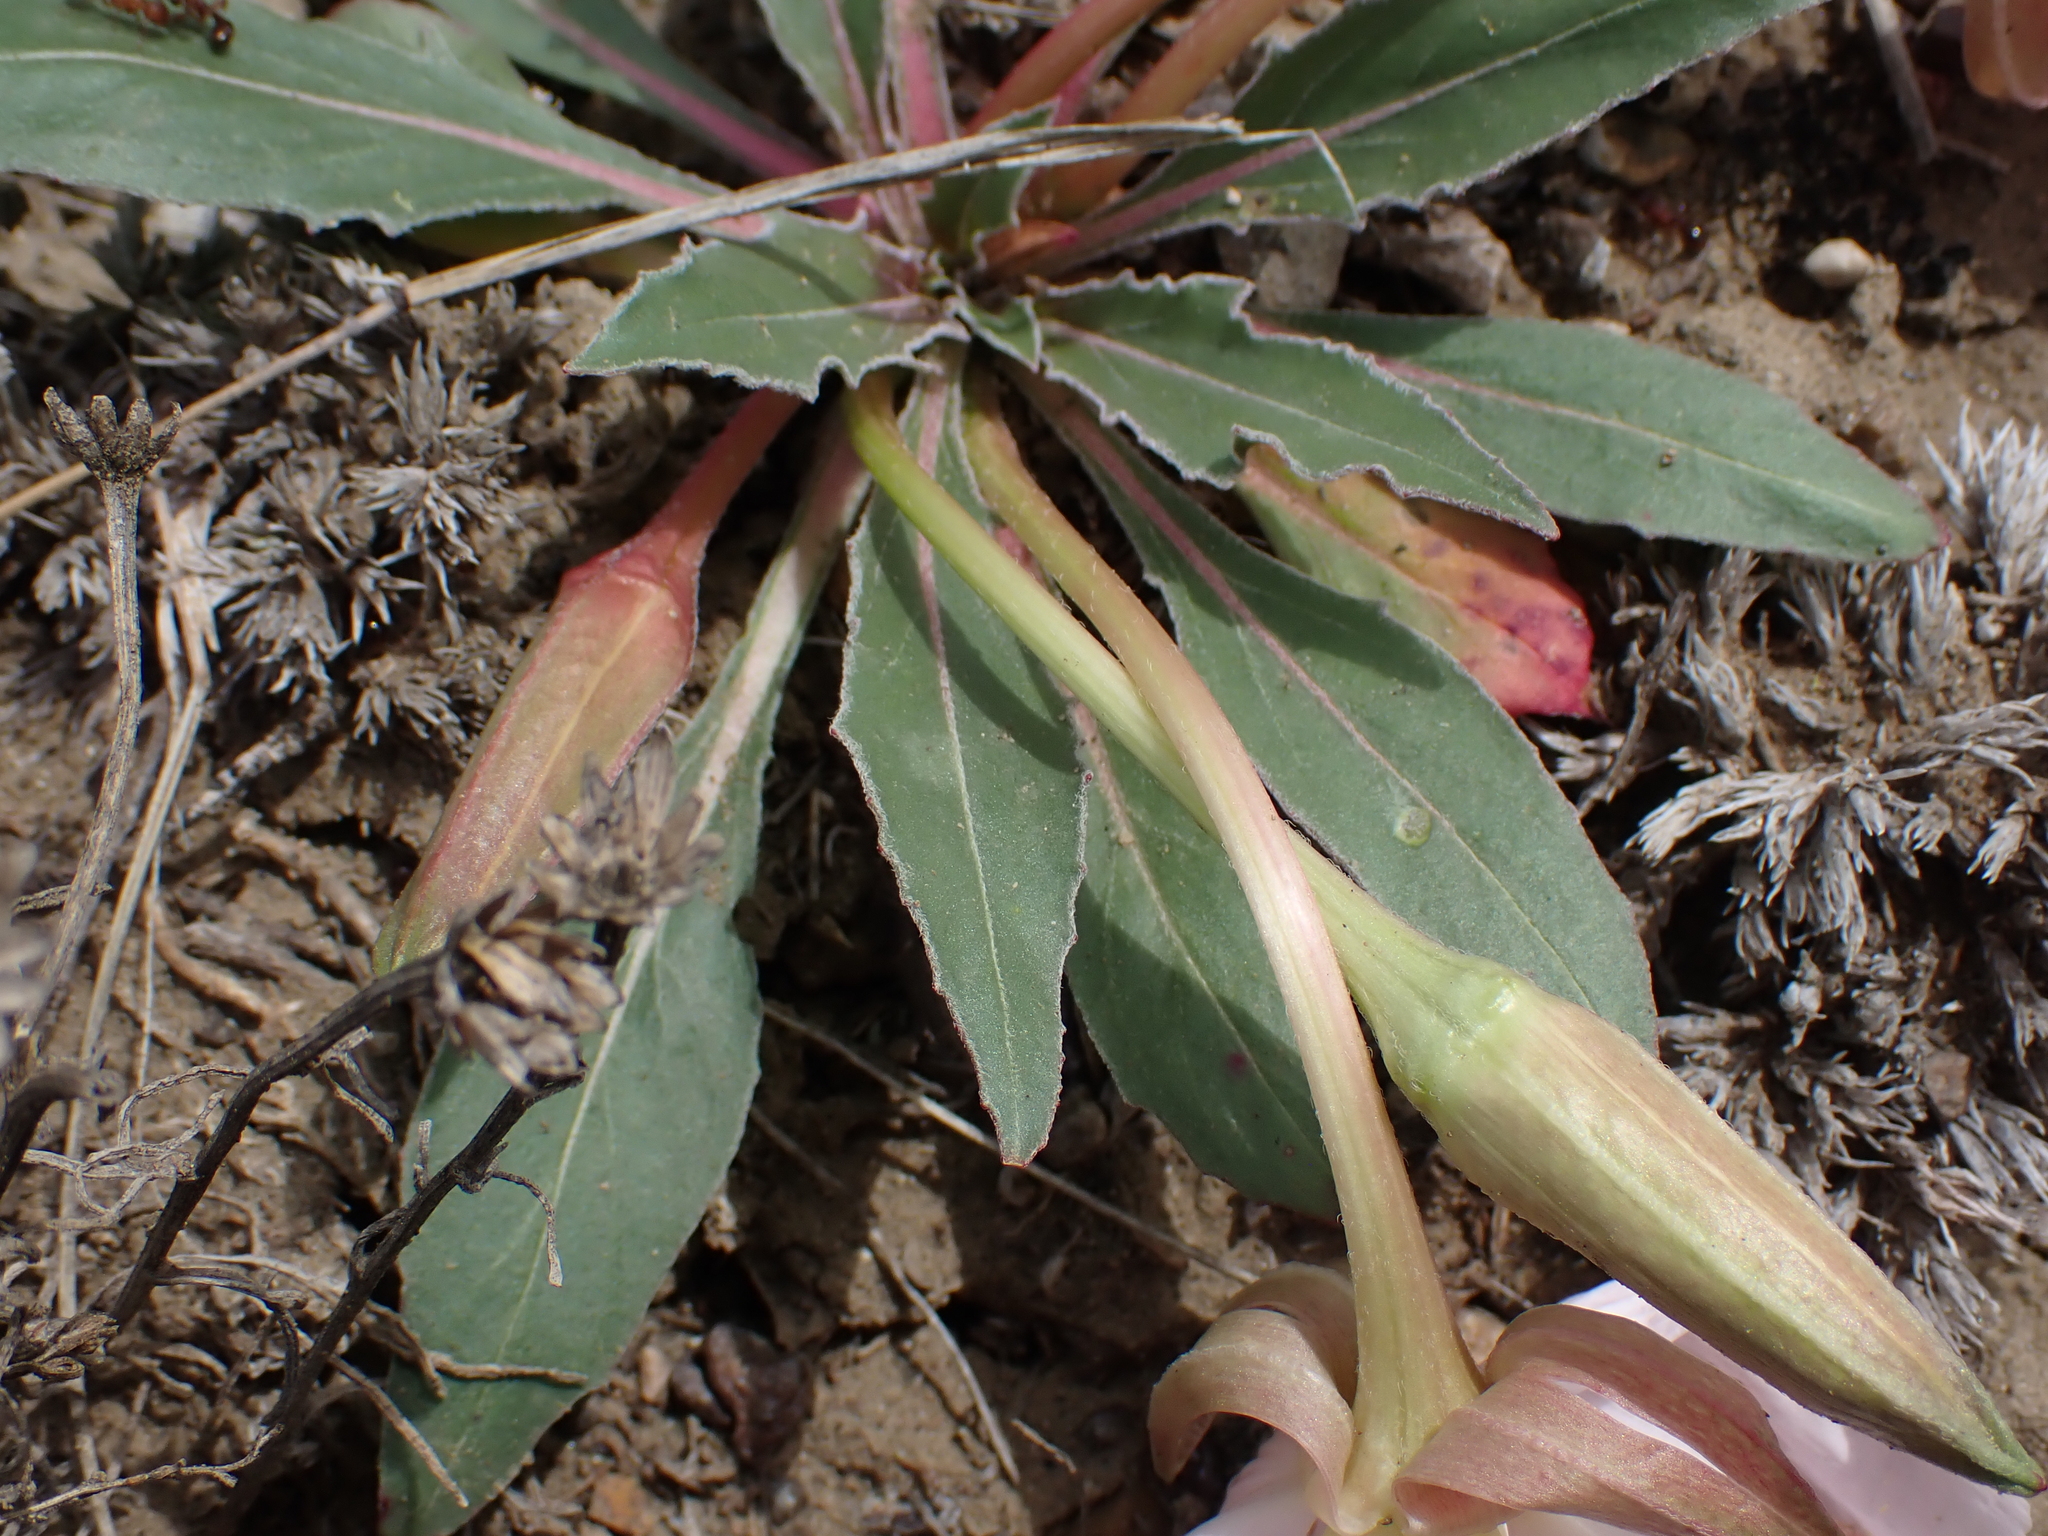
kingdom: Plantae
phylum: Tracheophyta
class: Magnoliopsida
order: Myrtales
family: Onagraceae
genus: Oenothera
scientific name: Oenothera cespitosa
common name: Tufted evening-primrose
